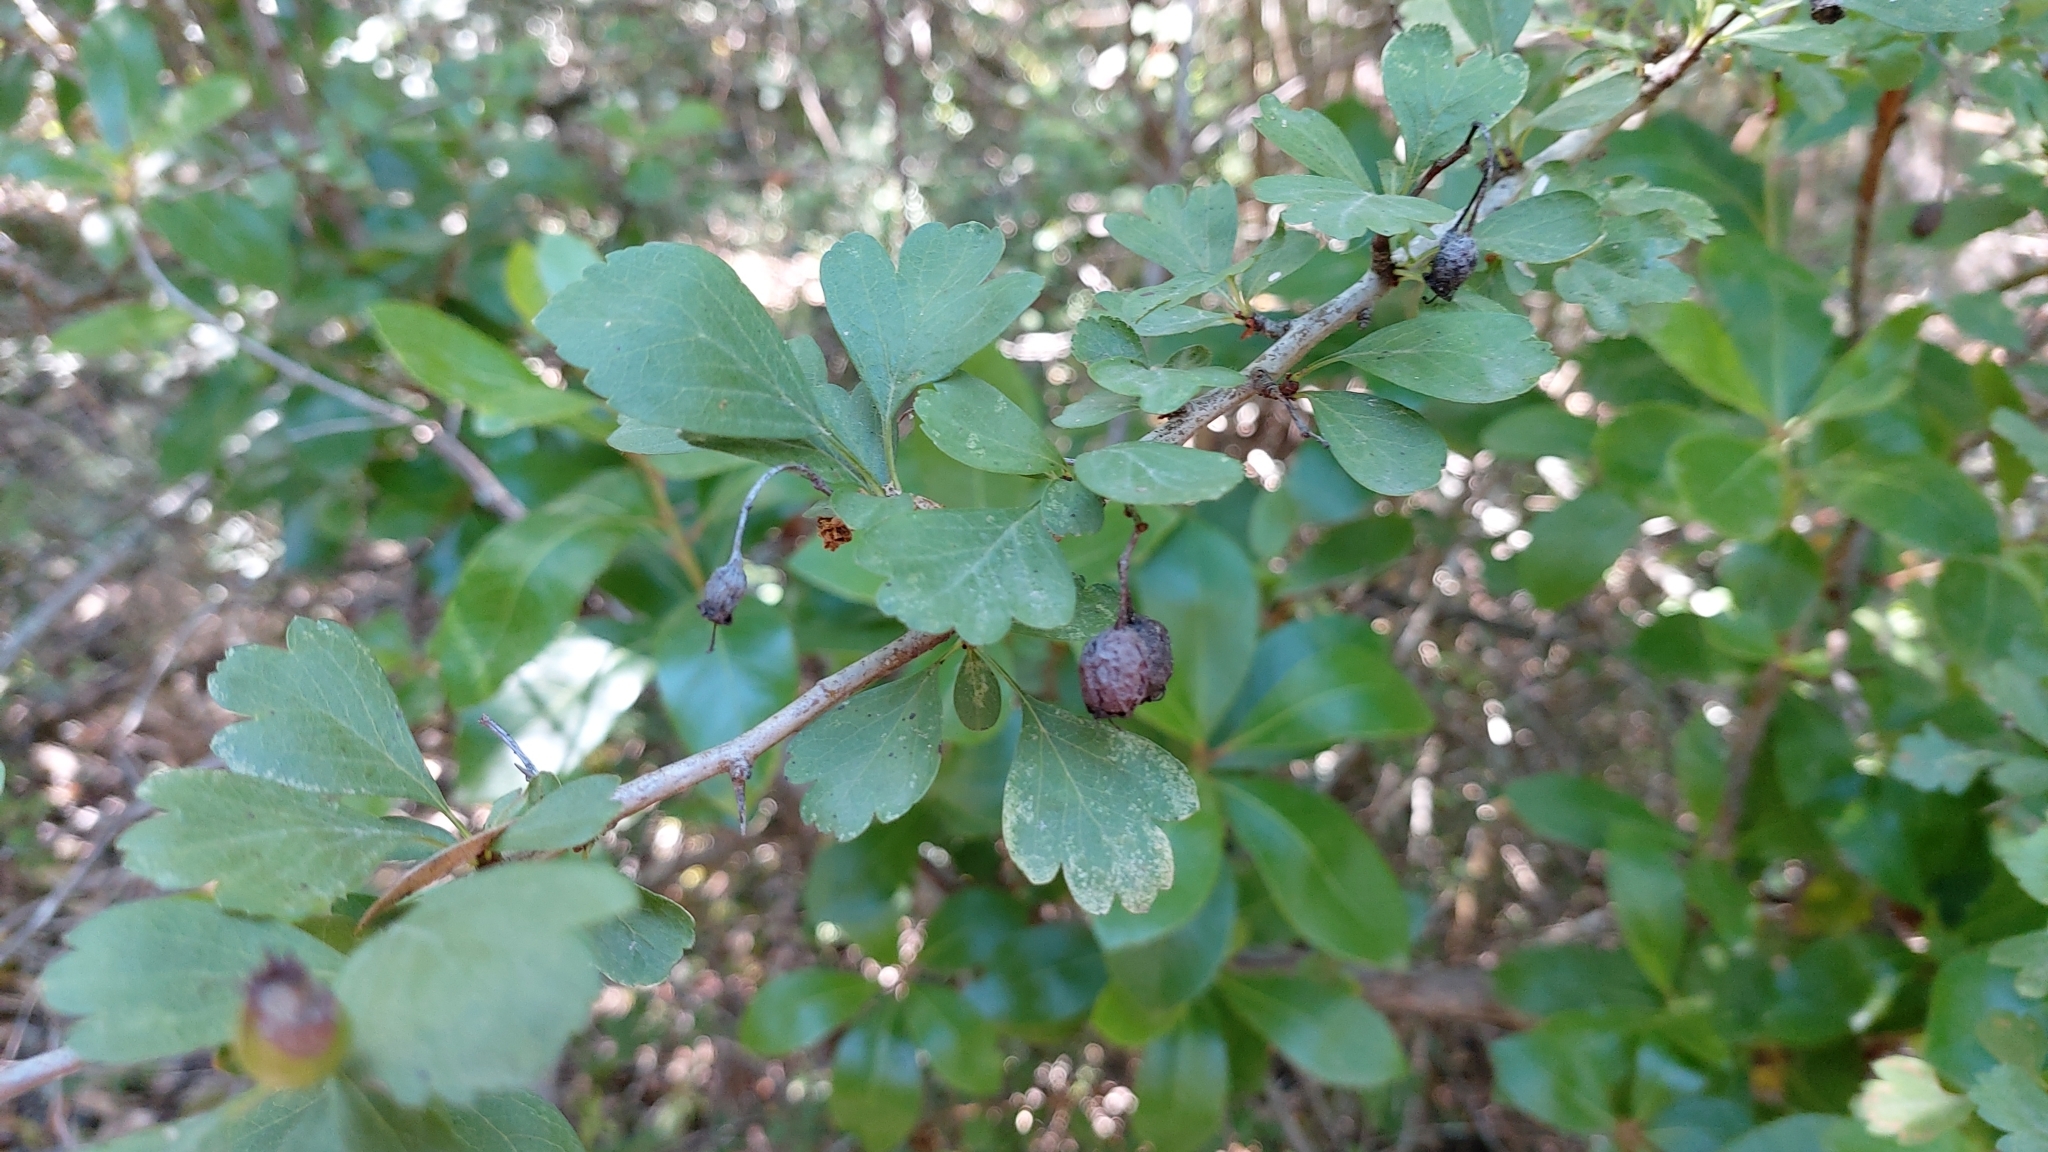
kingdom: Plantae
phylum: Tracheophyta
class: Magnoliopsida
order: Rosales
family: Rosaceae
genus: Crataegus
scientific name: Crataegus monogyna
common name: Hawthorn
